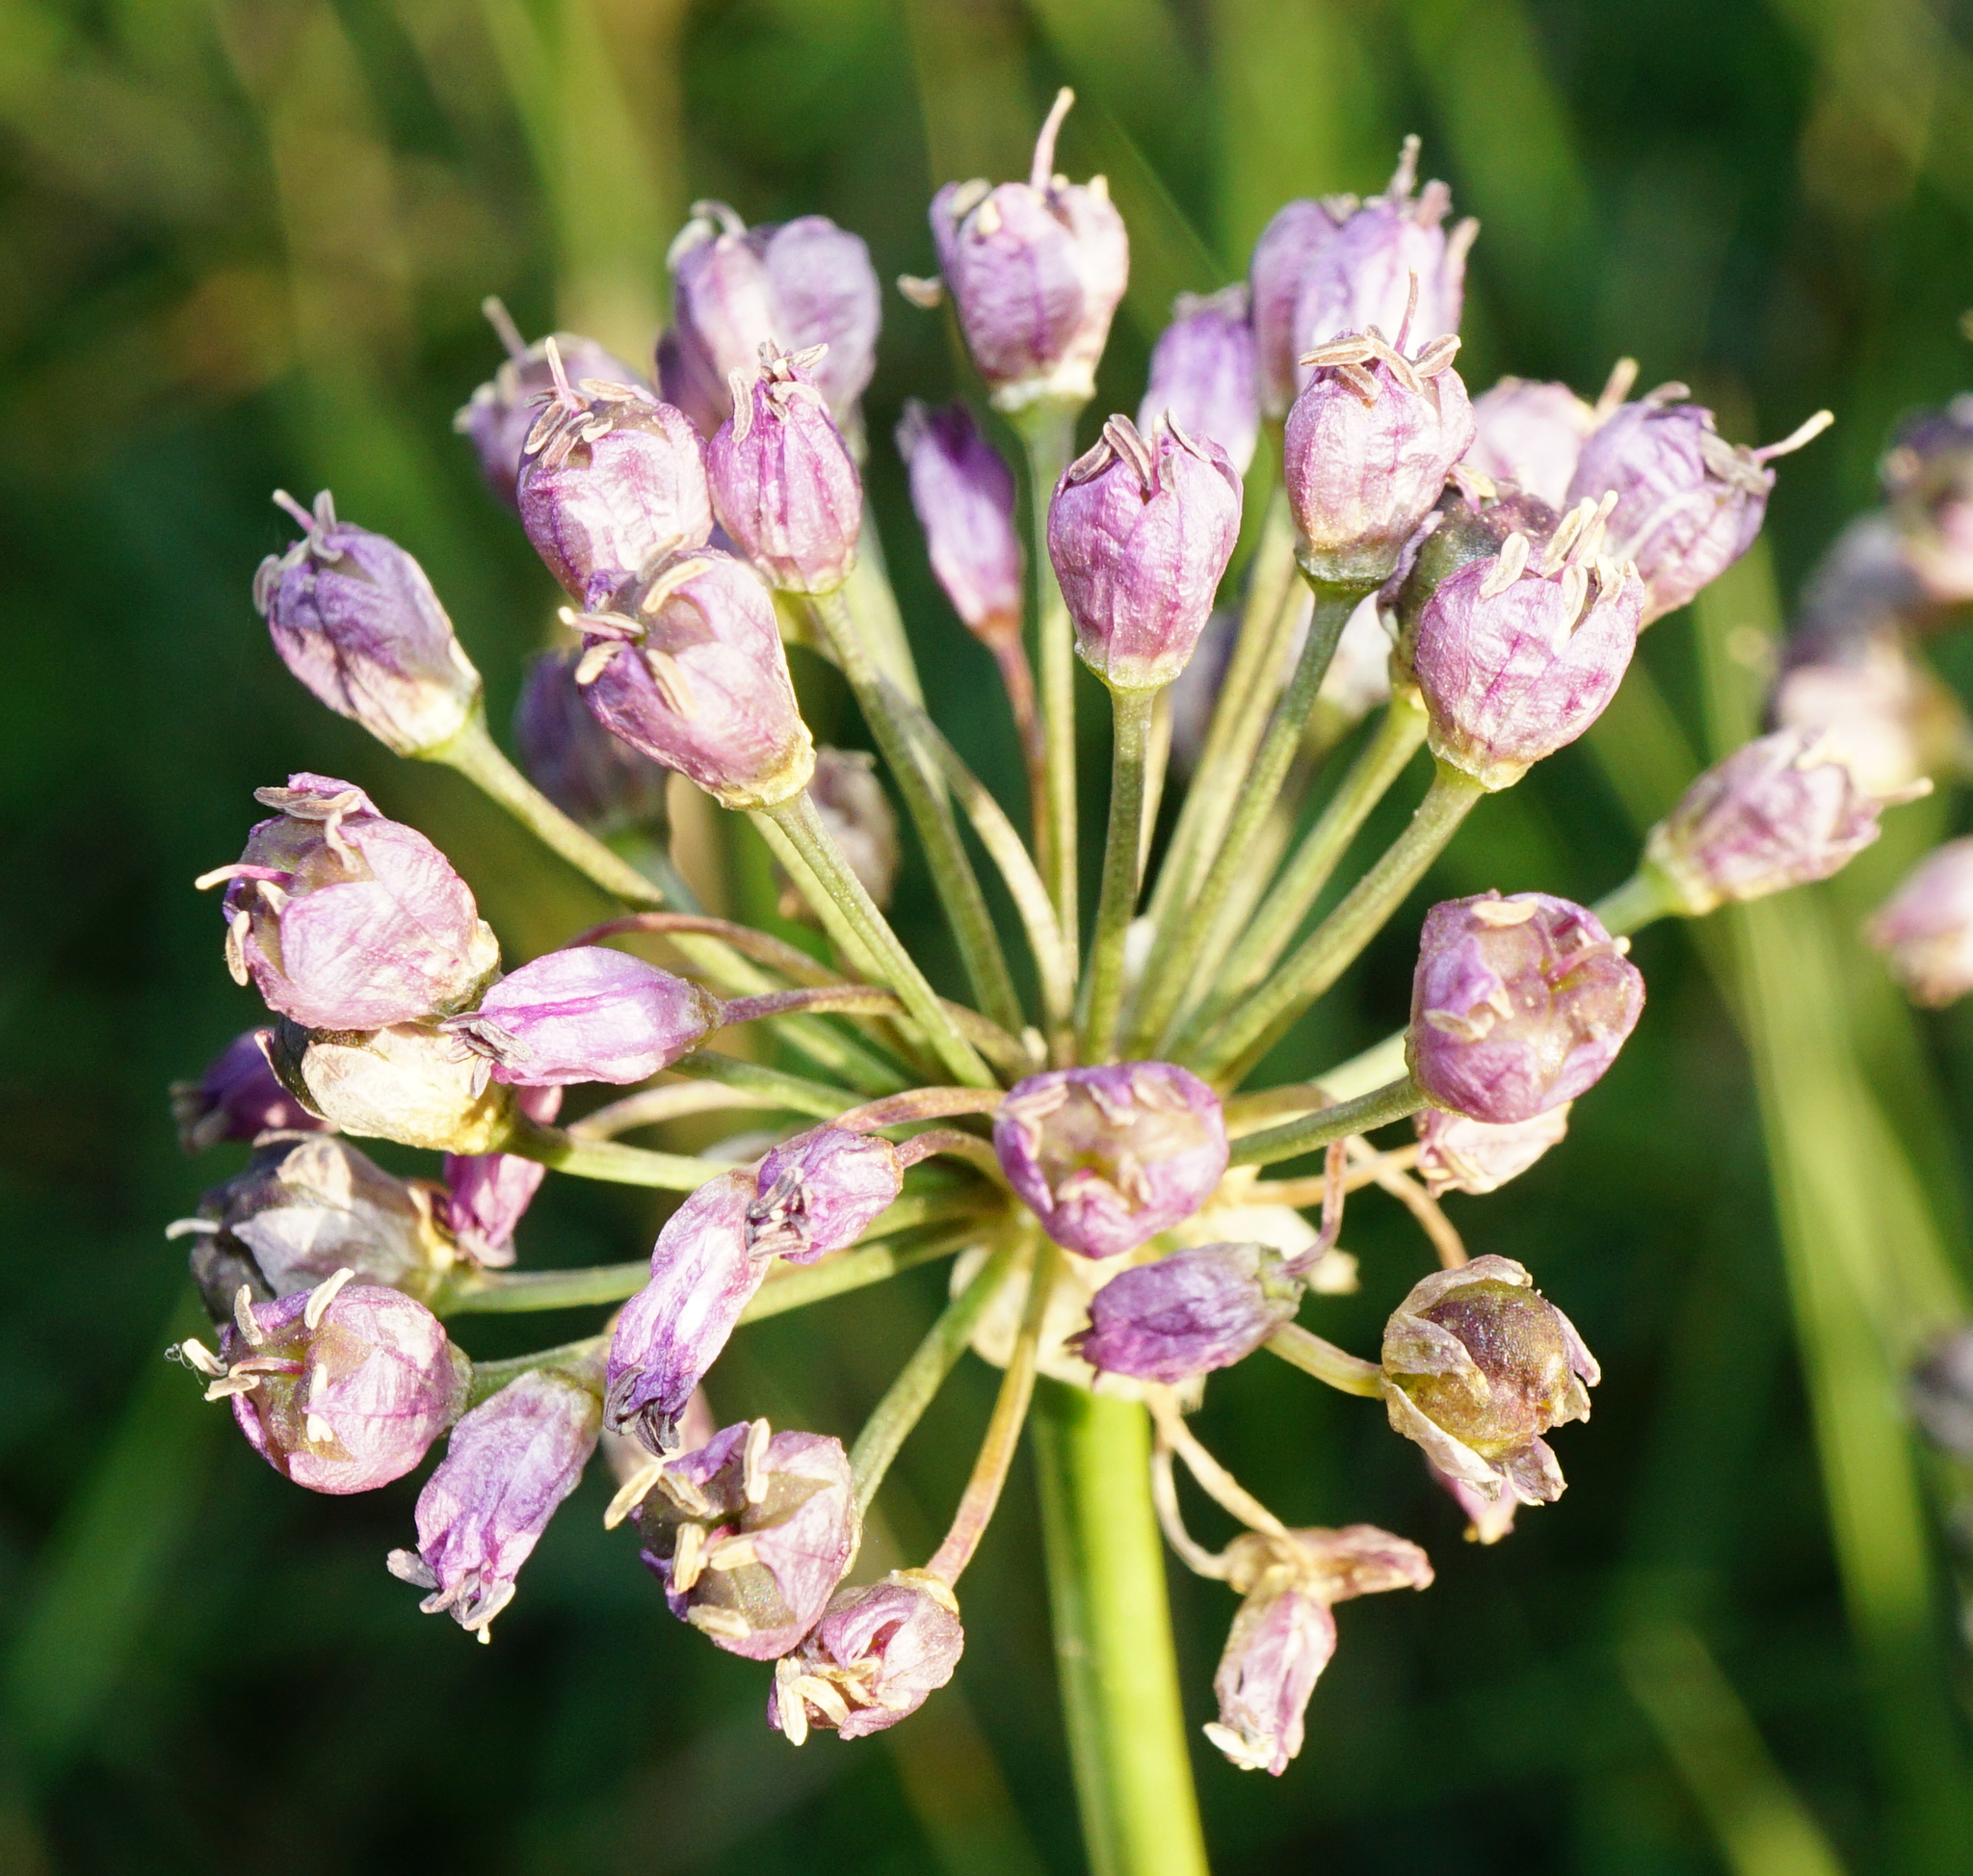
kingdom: Plantae
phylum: Tracheophyta
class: Liliopsida
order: Asparagales
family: Amaryllidaceae
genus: Allium
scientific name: Allium angulosum
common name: Mouse garlic
